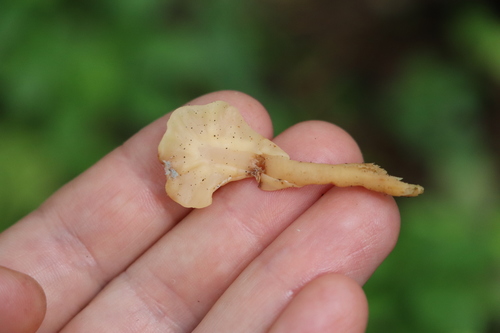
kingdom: Fungi
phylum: Ascomycota
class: Leotiomycetes
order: Rhytismatales
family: Cudoniaceae
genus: Spathularia
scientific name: Spathularia flavida
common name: Yellow fan
